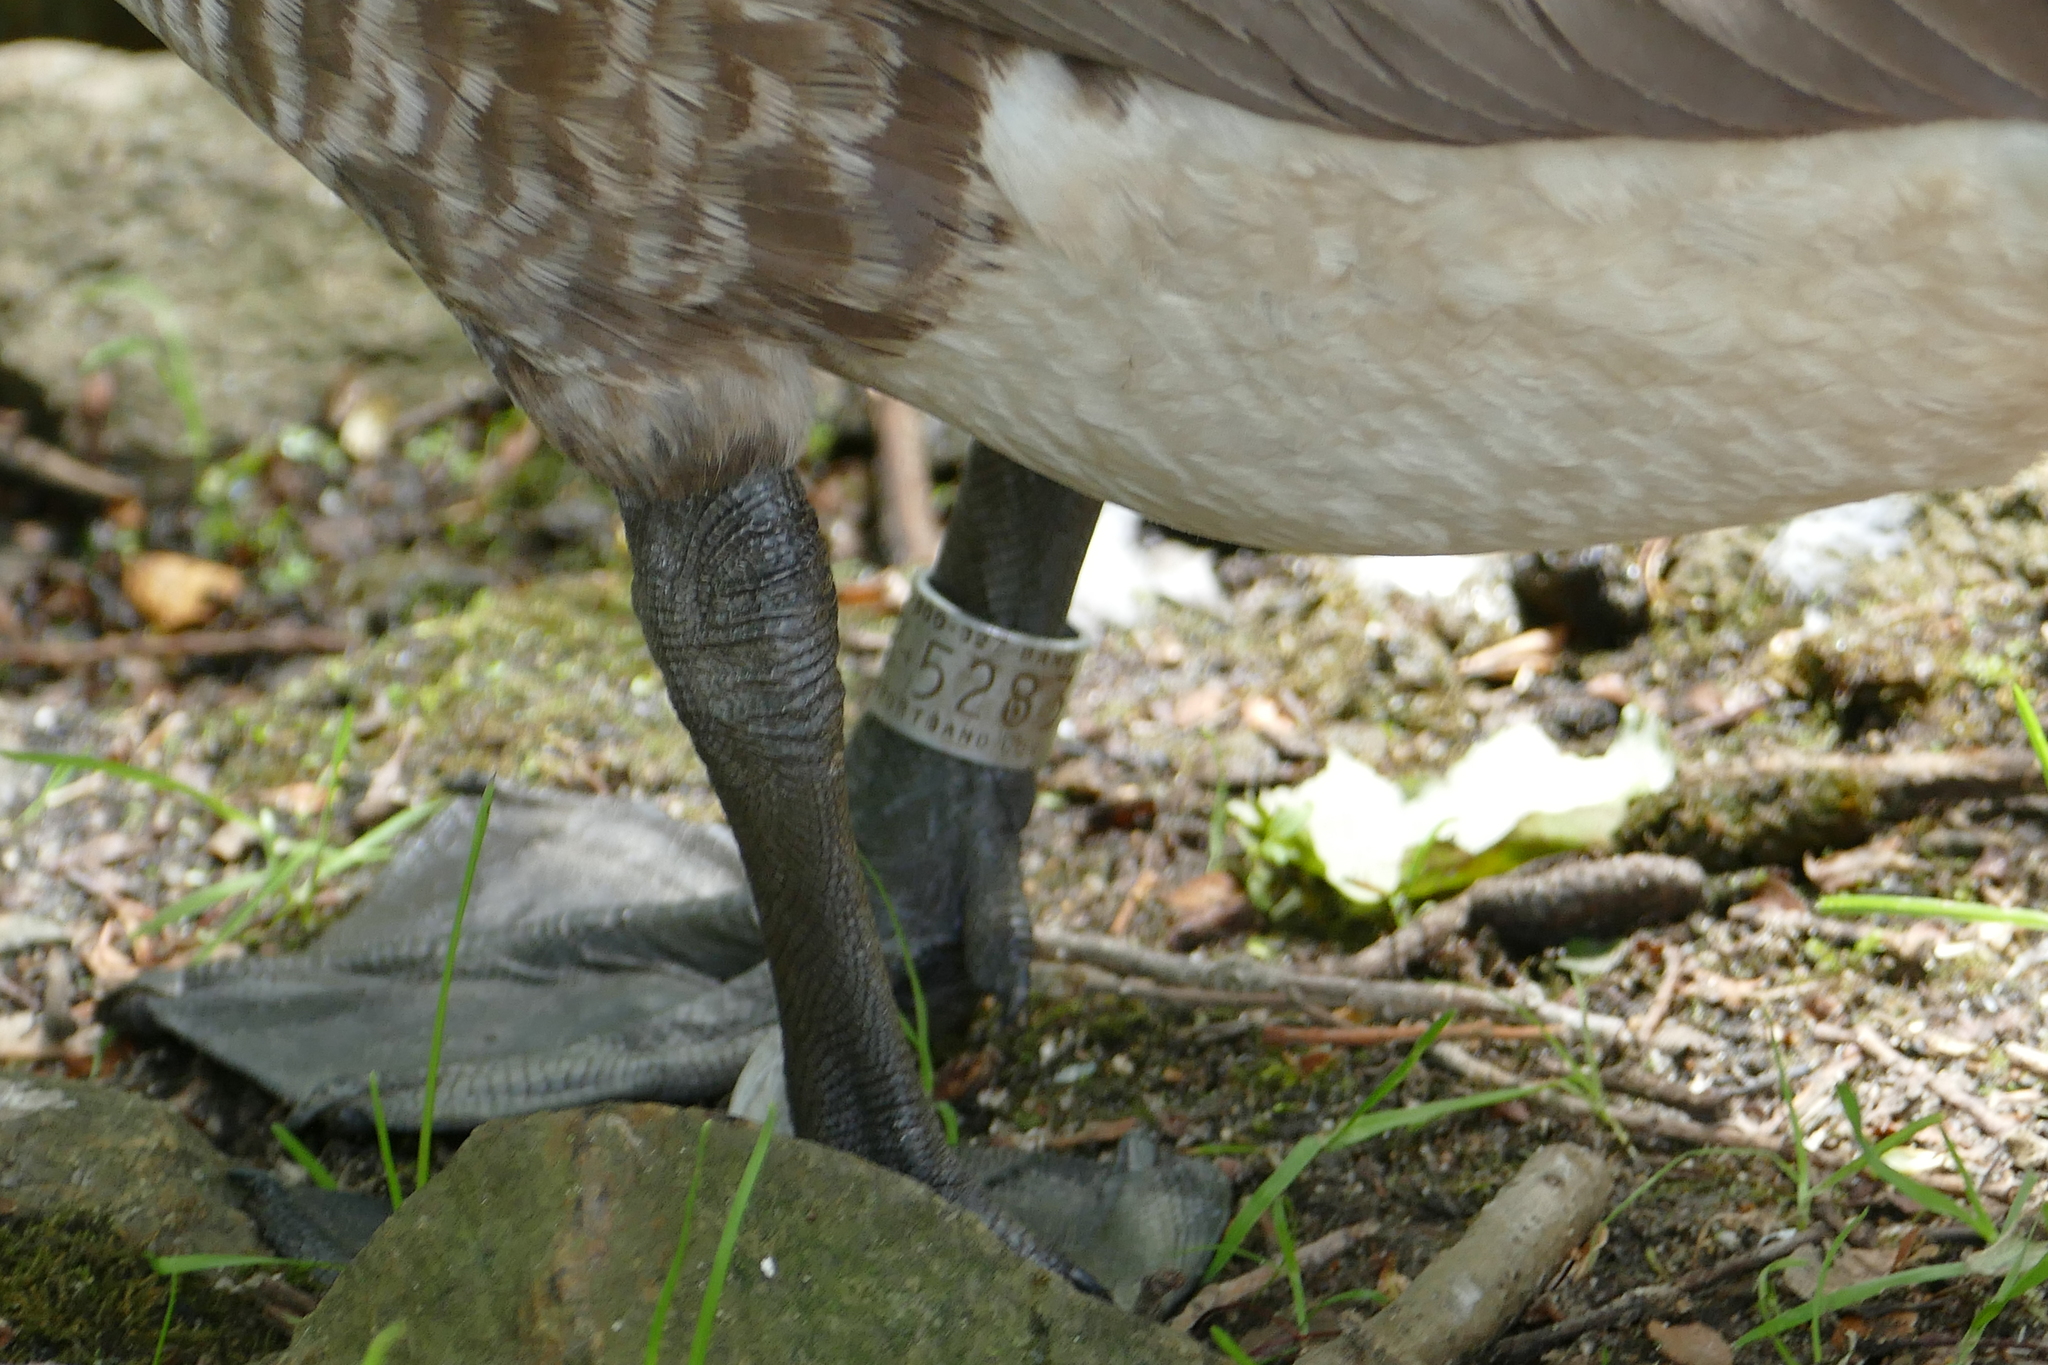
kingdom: Animalia
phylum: Chordata
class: Aves
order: Anseriformes
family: Anatidae
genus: Branta
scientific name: Branta canadensis
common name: Canada goose
